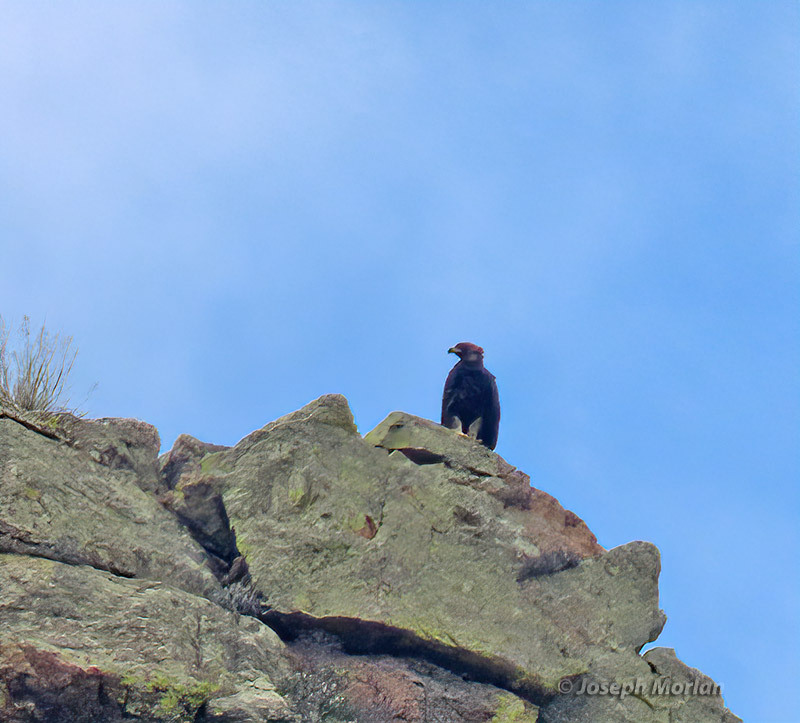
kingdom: Animalia
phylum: Chordata
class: Aves
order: Accipitriformes
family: Accipitridae
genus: Aquila
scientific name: Aquila chrysaetos
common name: Golden eagle
